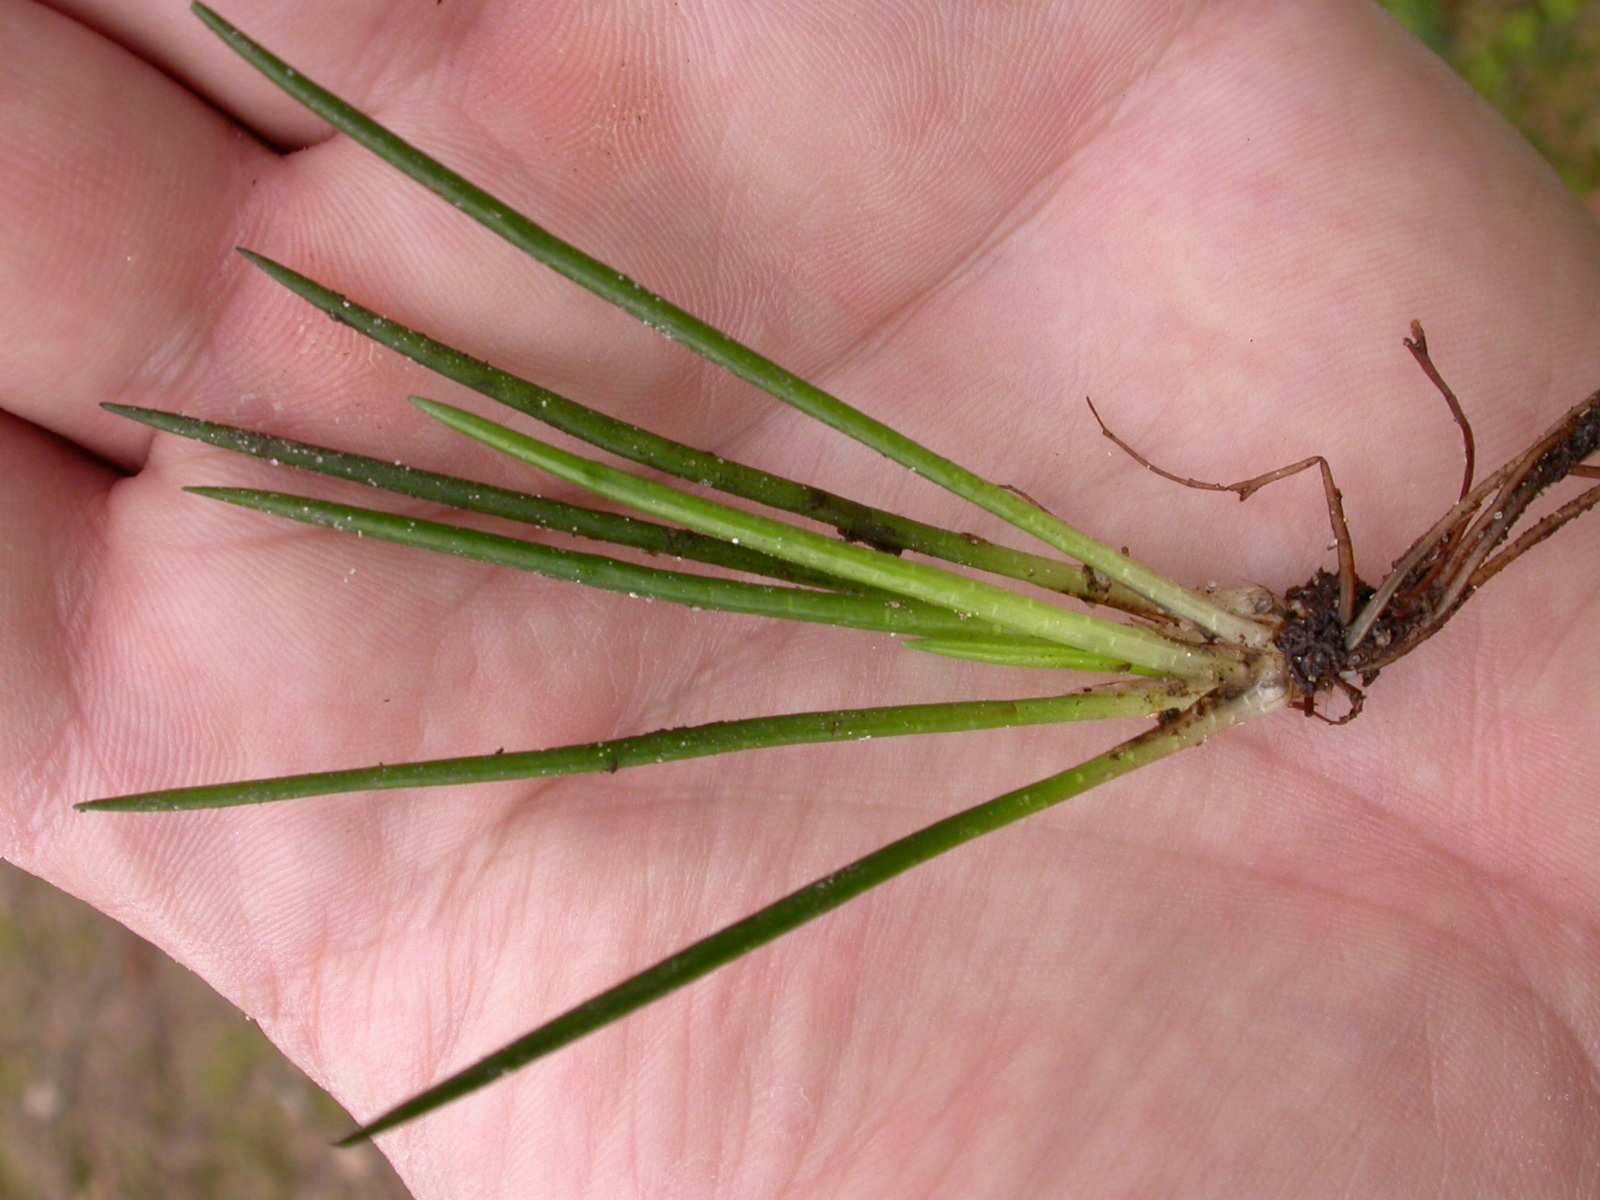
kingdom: Plantae
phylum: Tracheophyta
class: Lycopodiopsida
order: Isoetales
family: Isoetaceae
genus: Isoetes
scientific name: Isoetes lacustris
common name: Common quillwort
